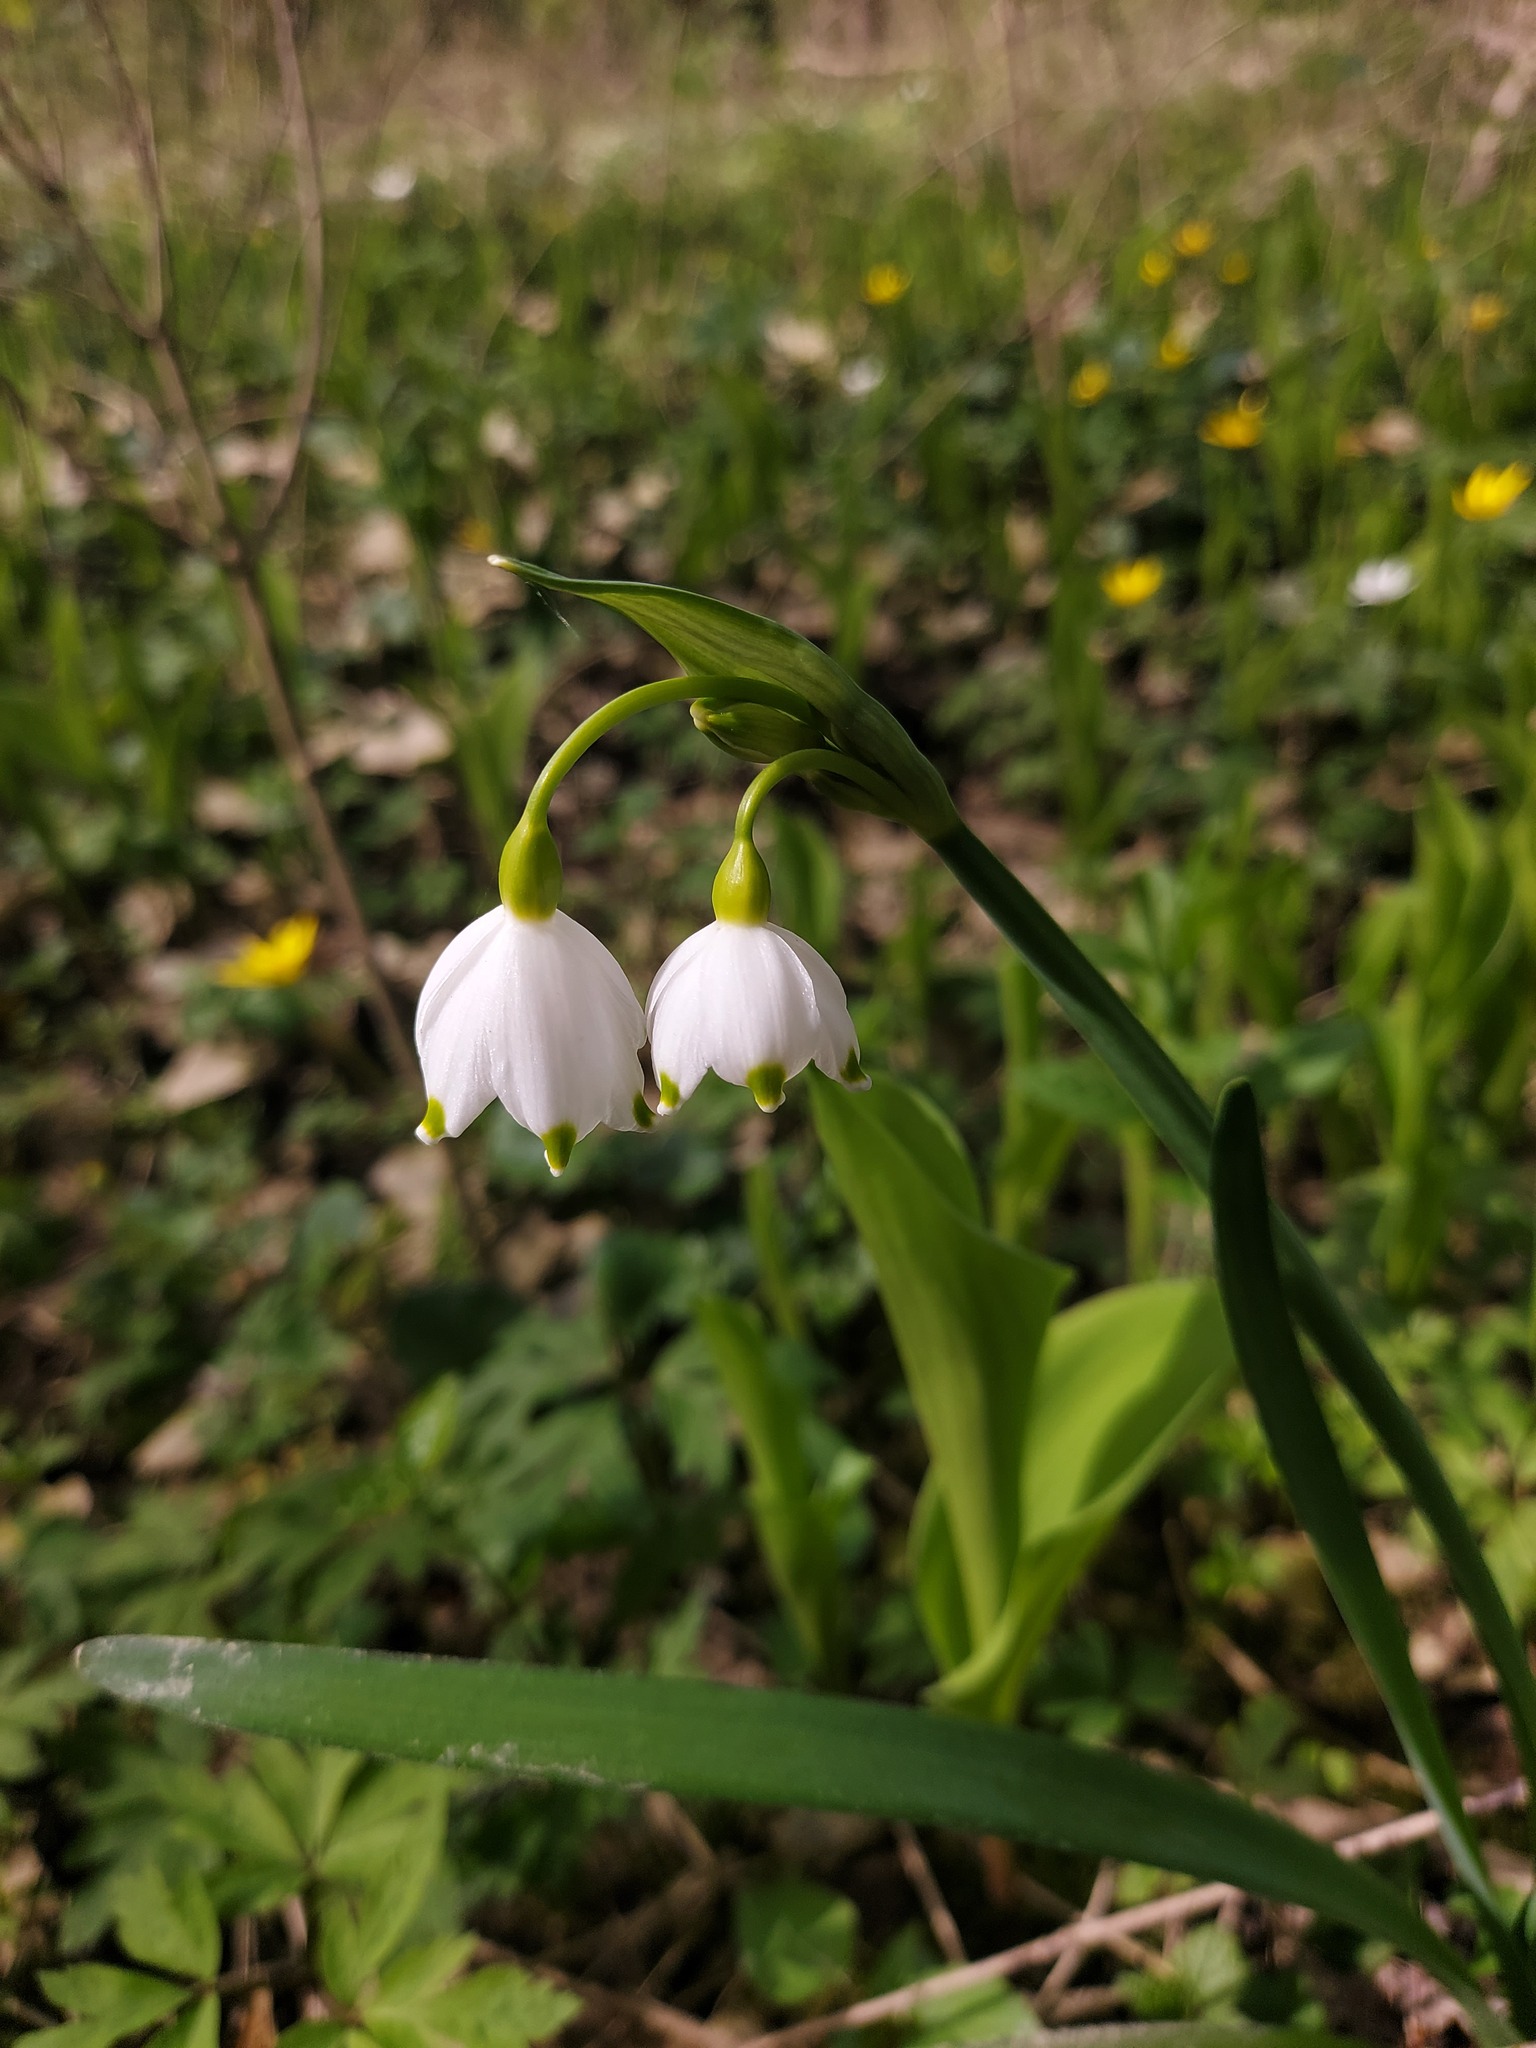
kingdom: Plantae
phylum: Tracheophyta
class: Liliopsida
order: Asparagales
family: Amaryllidaceae
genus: Leucojum
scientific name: Leucojum aestivum
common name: Summer snowflake
